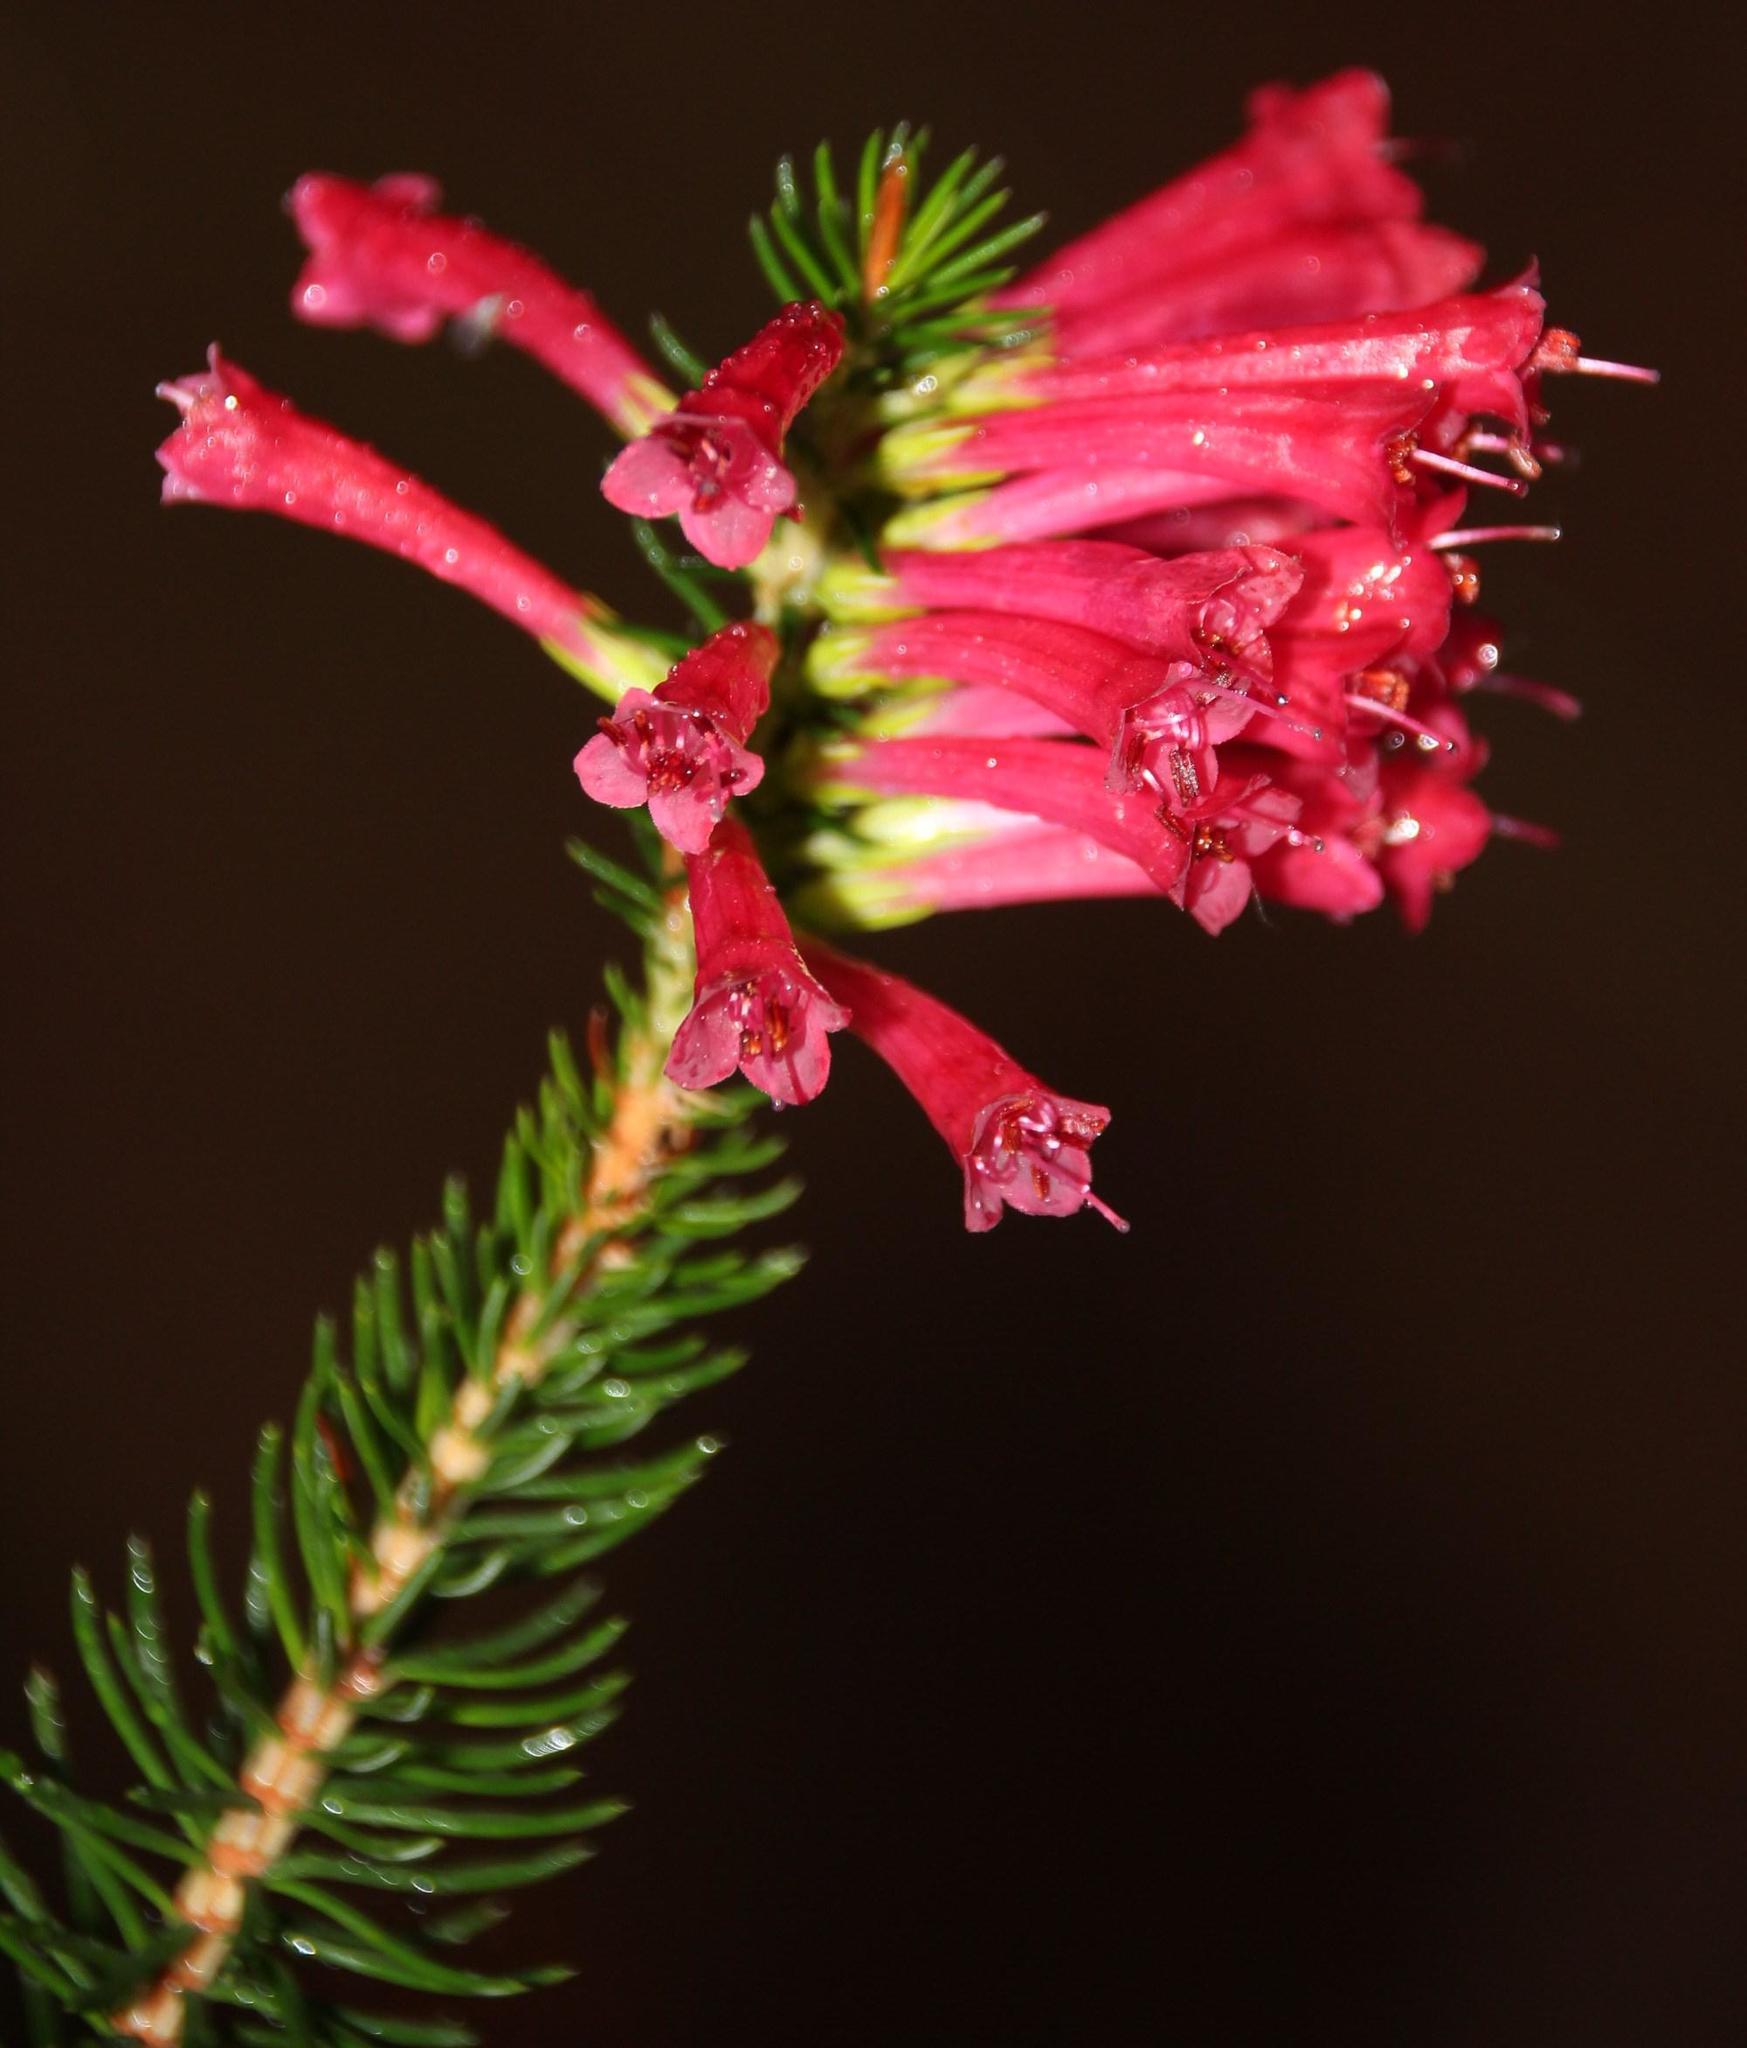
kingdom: Plantae
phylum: Tracheophyta
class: Magnoliopsida
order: Ericales
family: Ericaceae
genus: Erica
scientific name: Erica abietina
